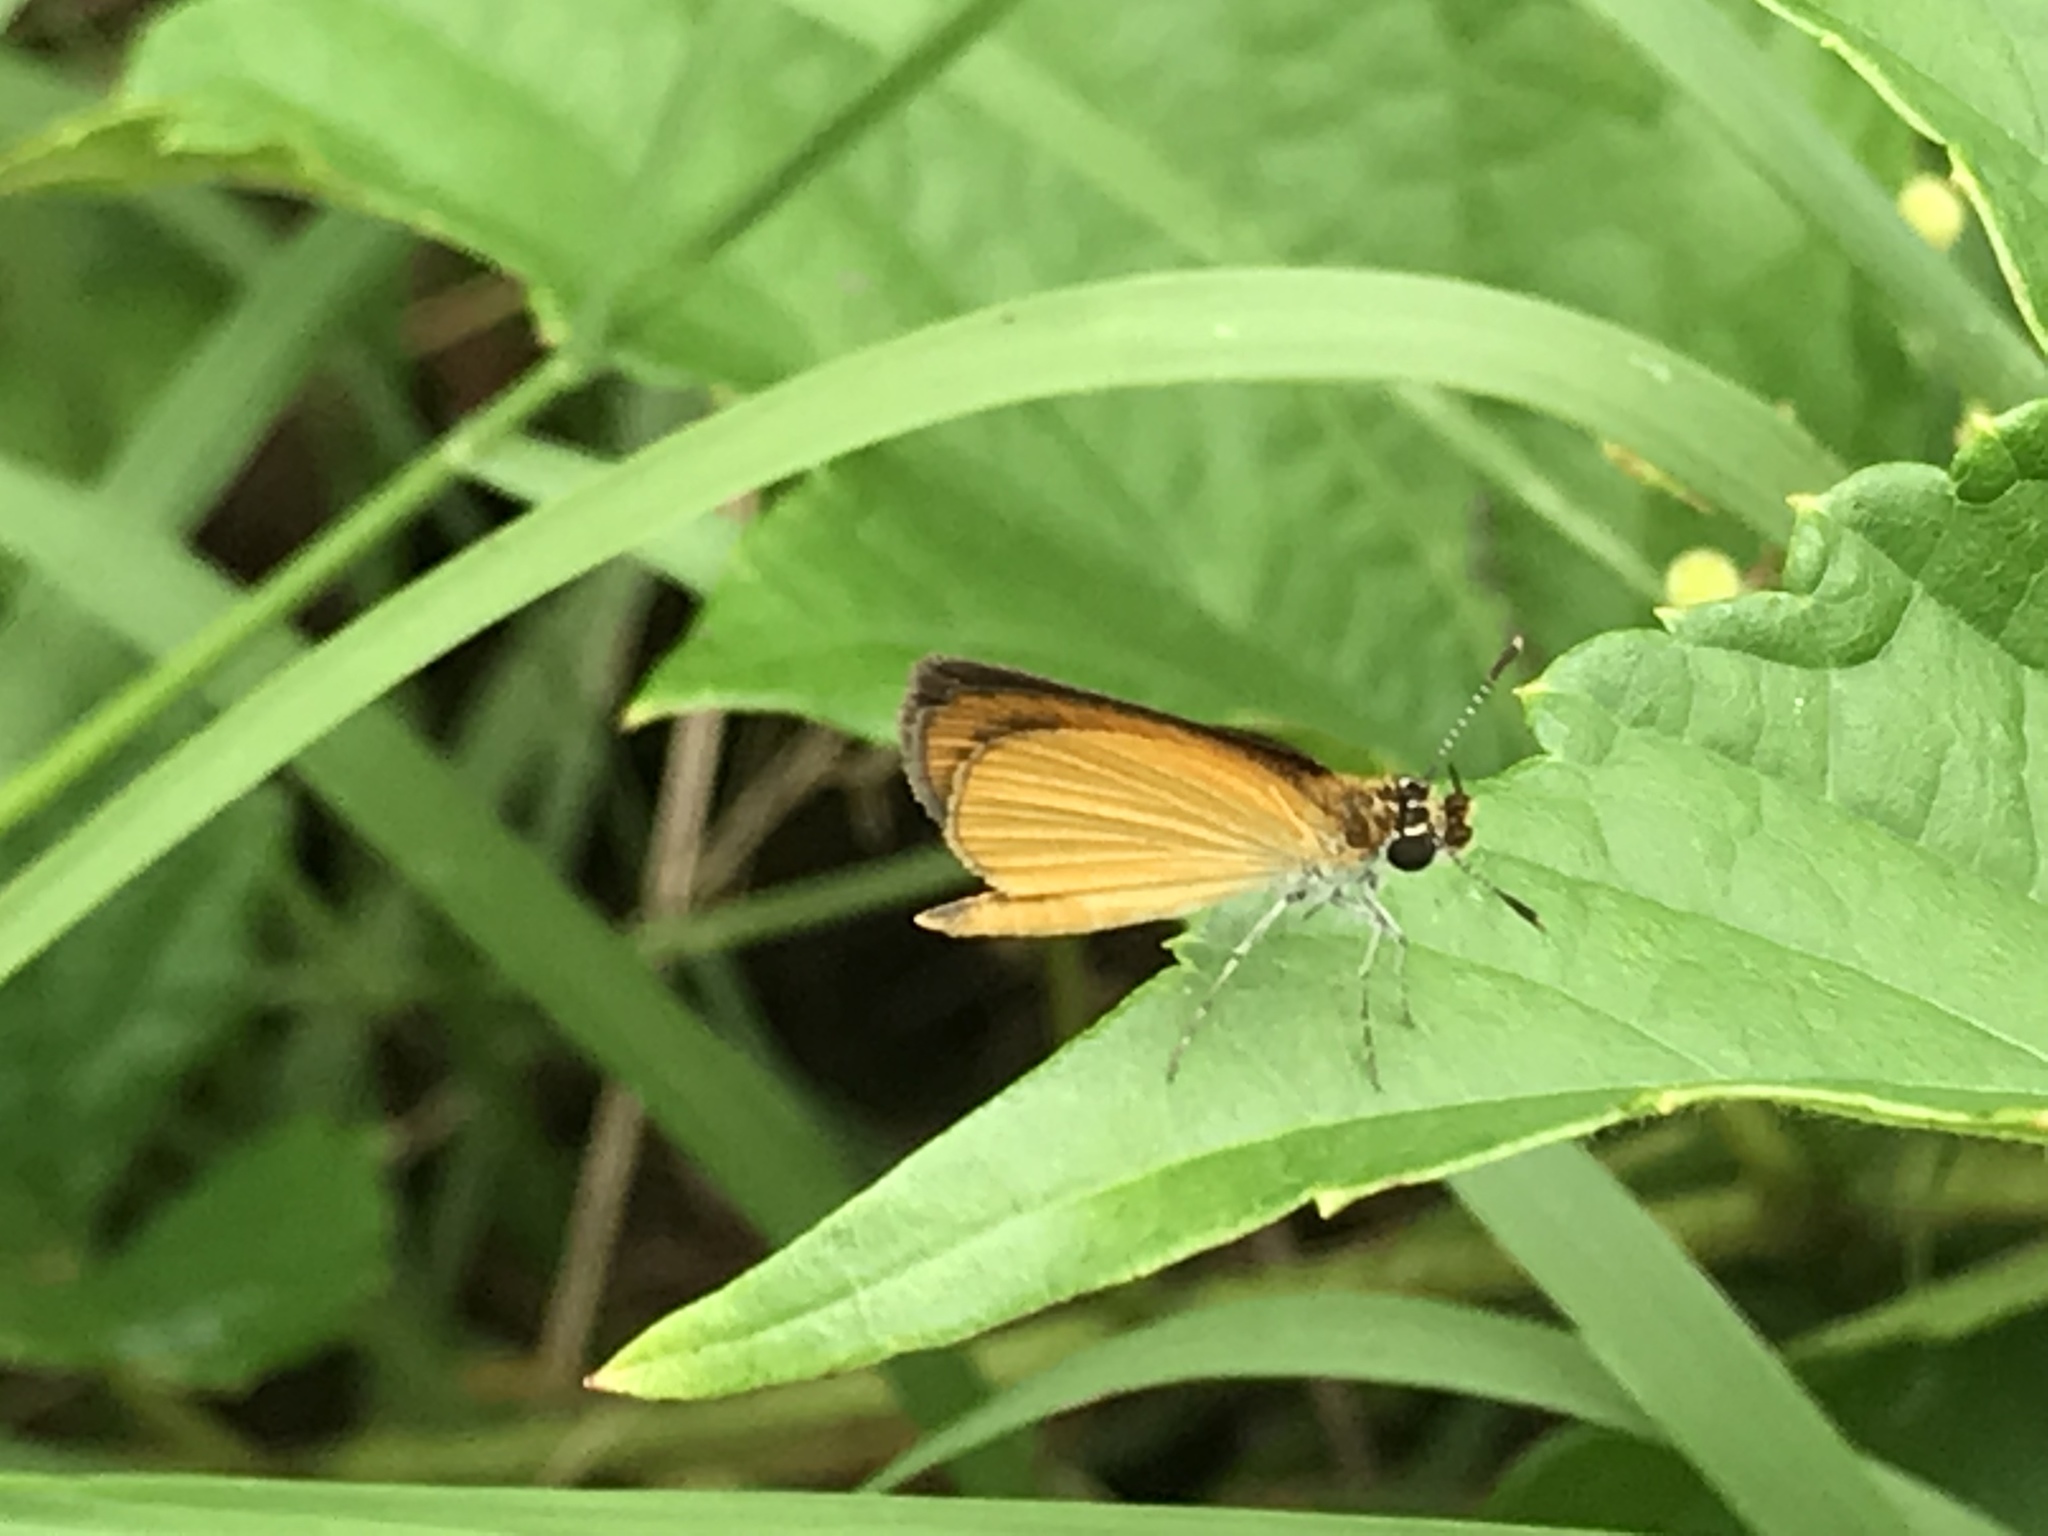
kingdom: Animalia
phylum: Arthropoda
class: Insecta
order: Lepidoptera
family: Hesperiidae
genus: Ancyloxypha
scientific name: Ancyloxypha numitor
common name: Least skipper
